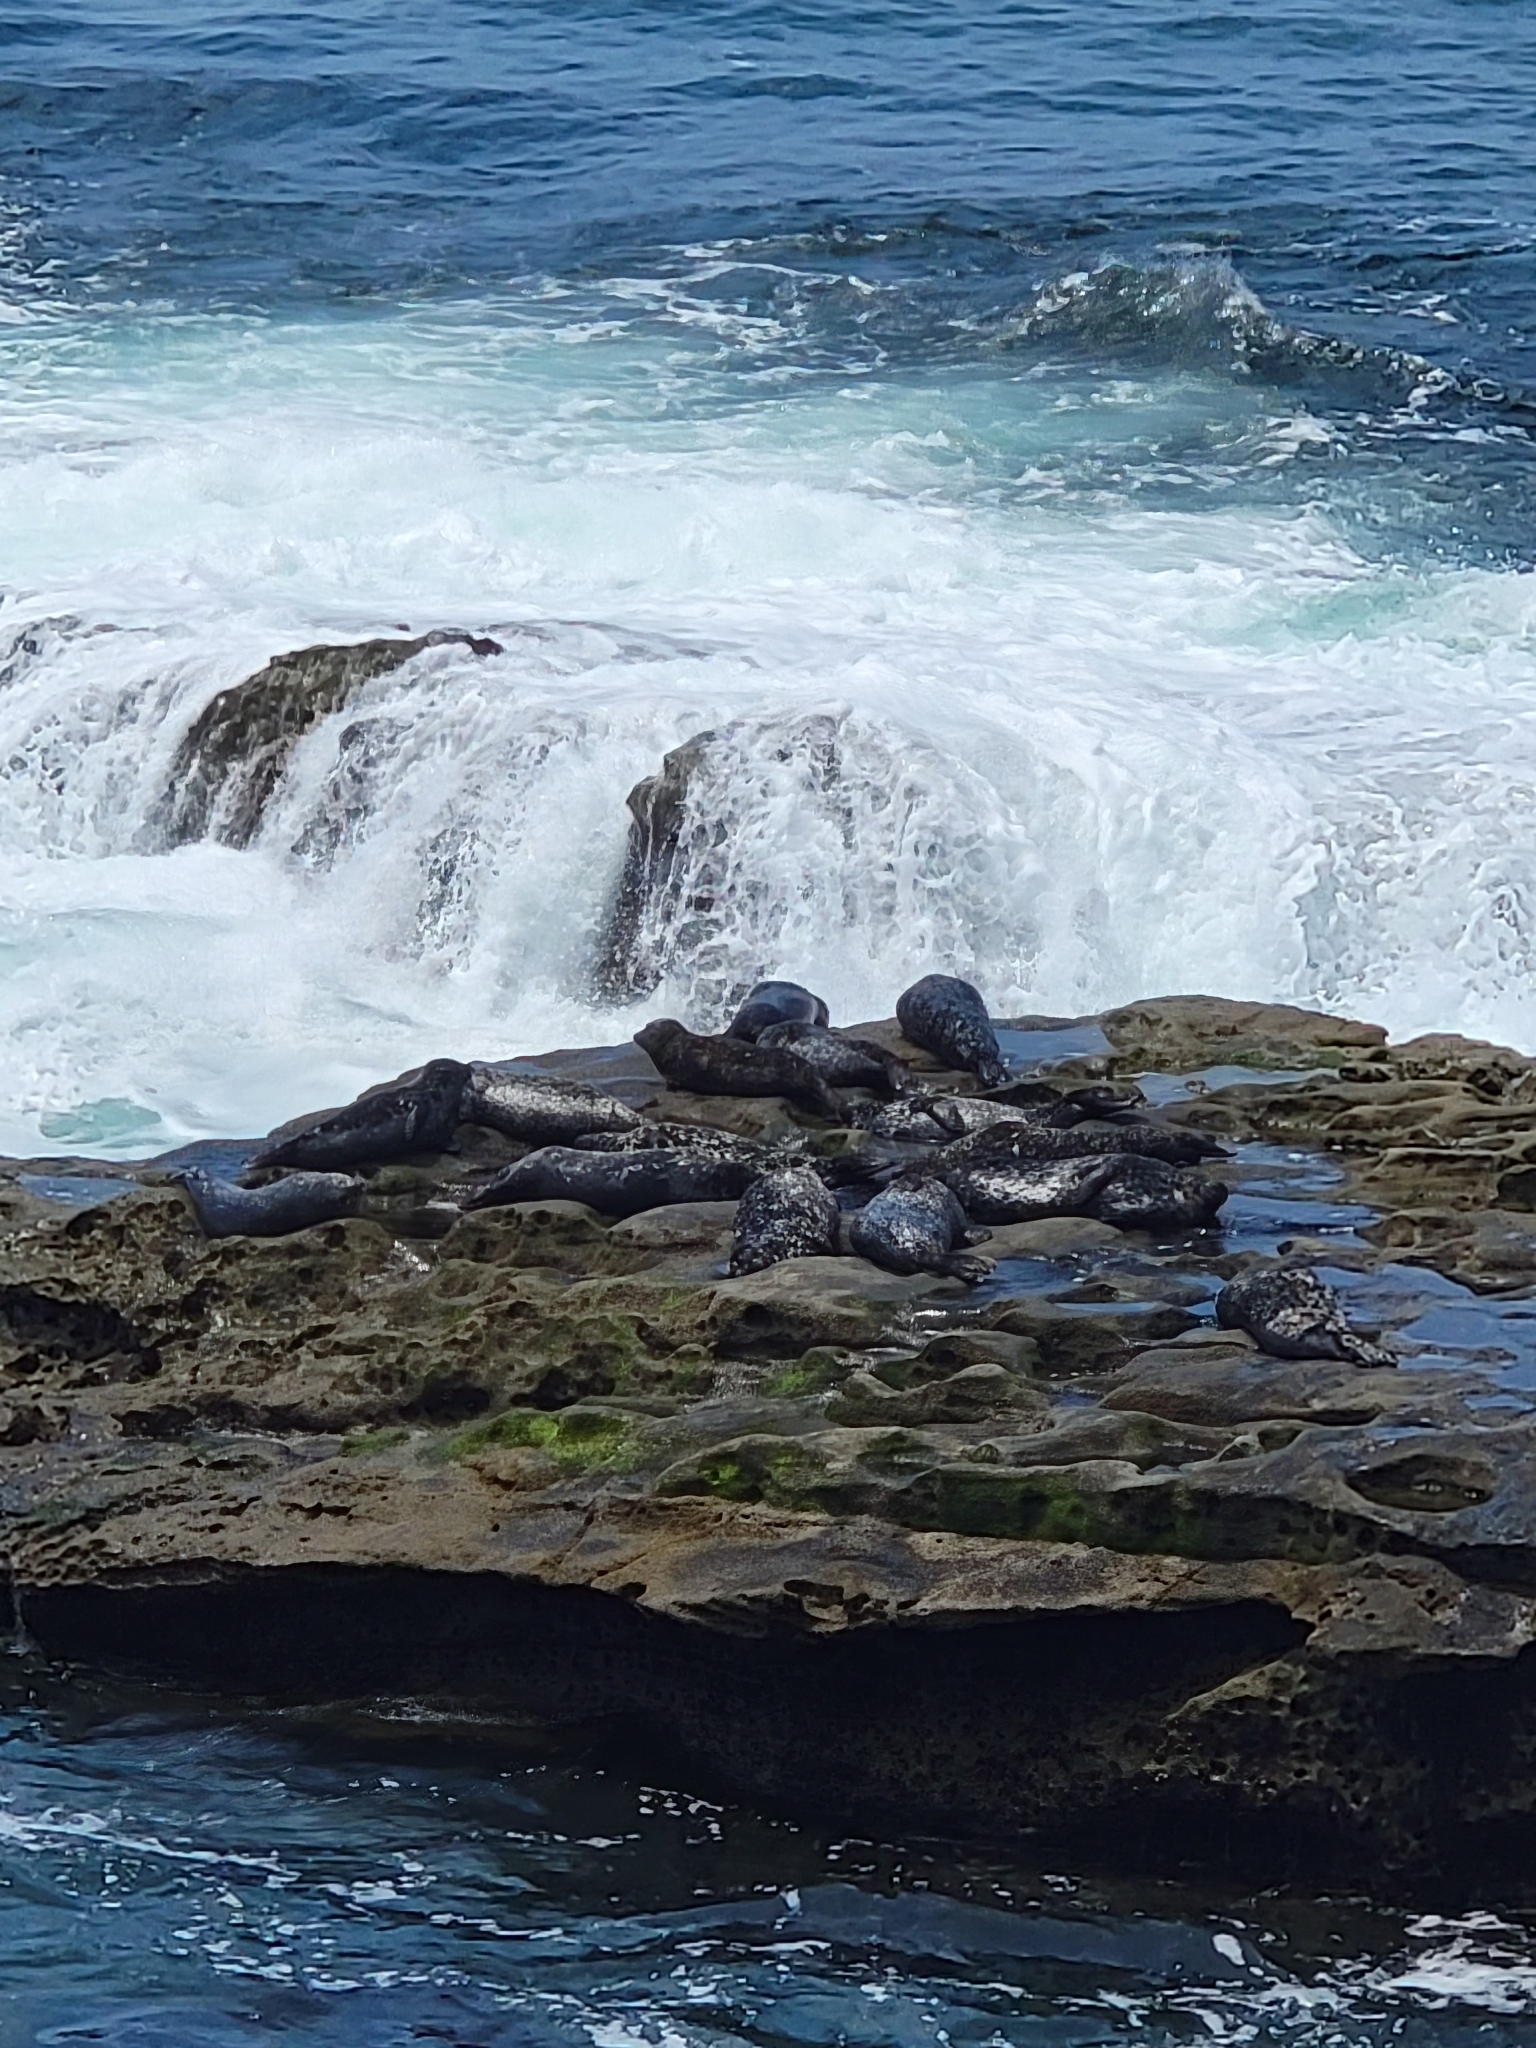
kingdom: Animalia
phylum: Chordata
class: Mammalia
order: Carnivora
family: Phocidae
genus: Phoca
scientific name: Phoca vitulina
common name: Harbor seal
